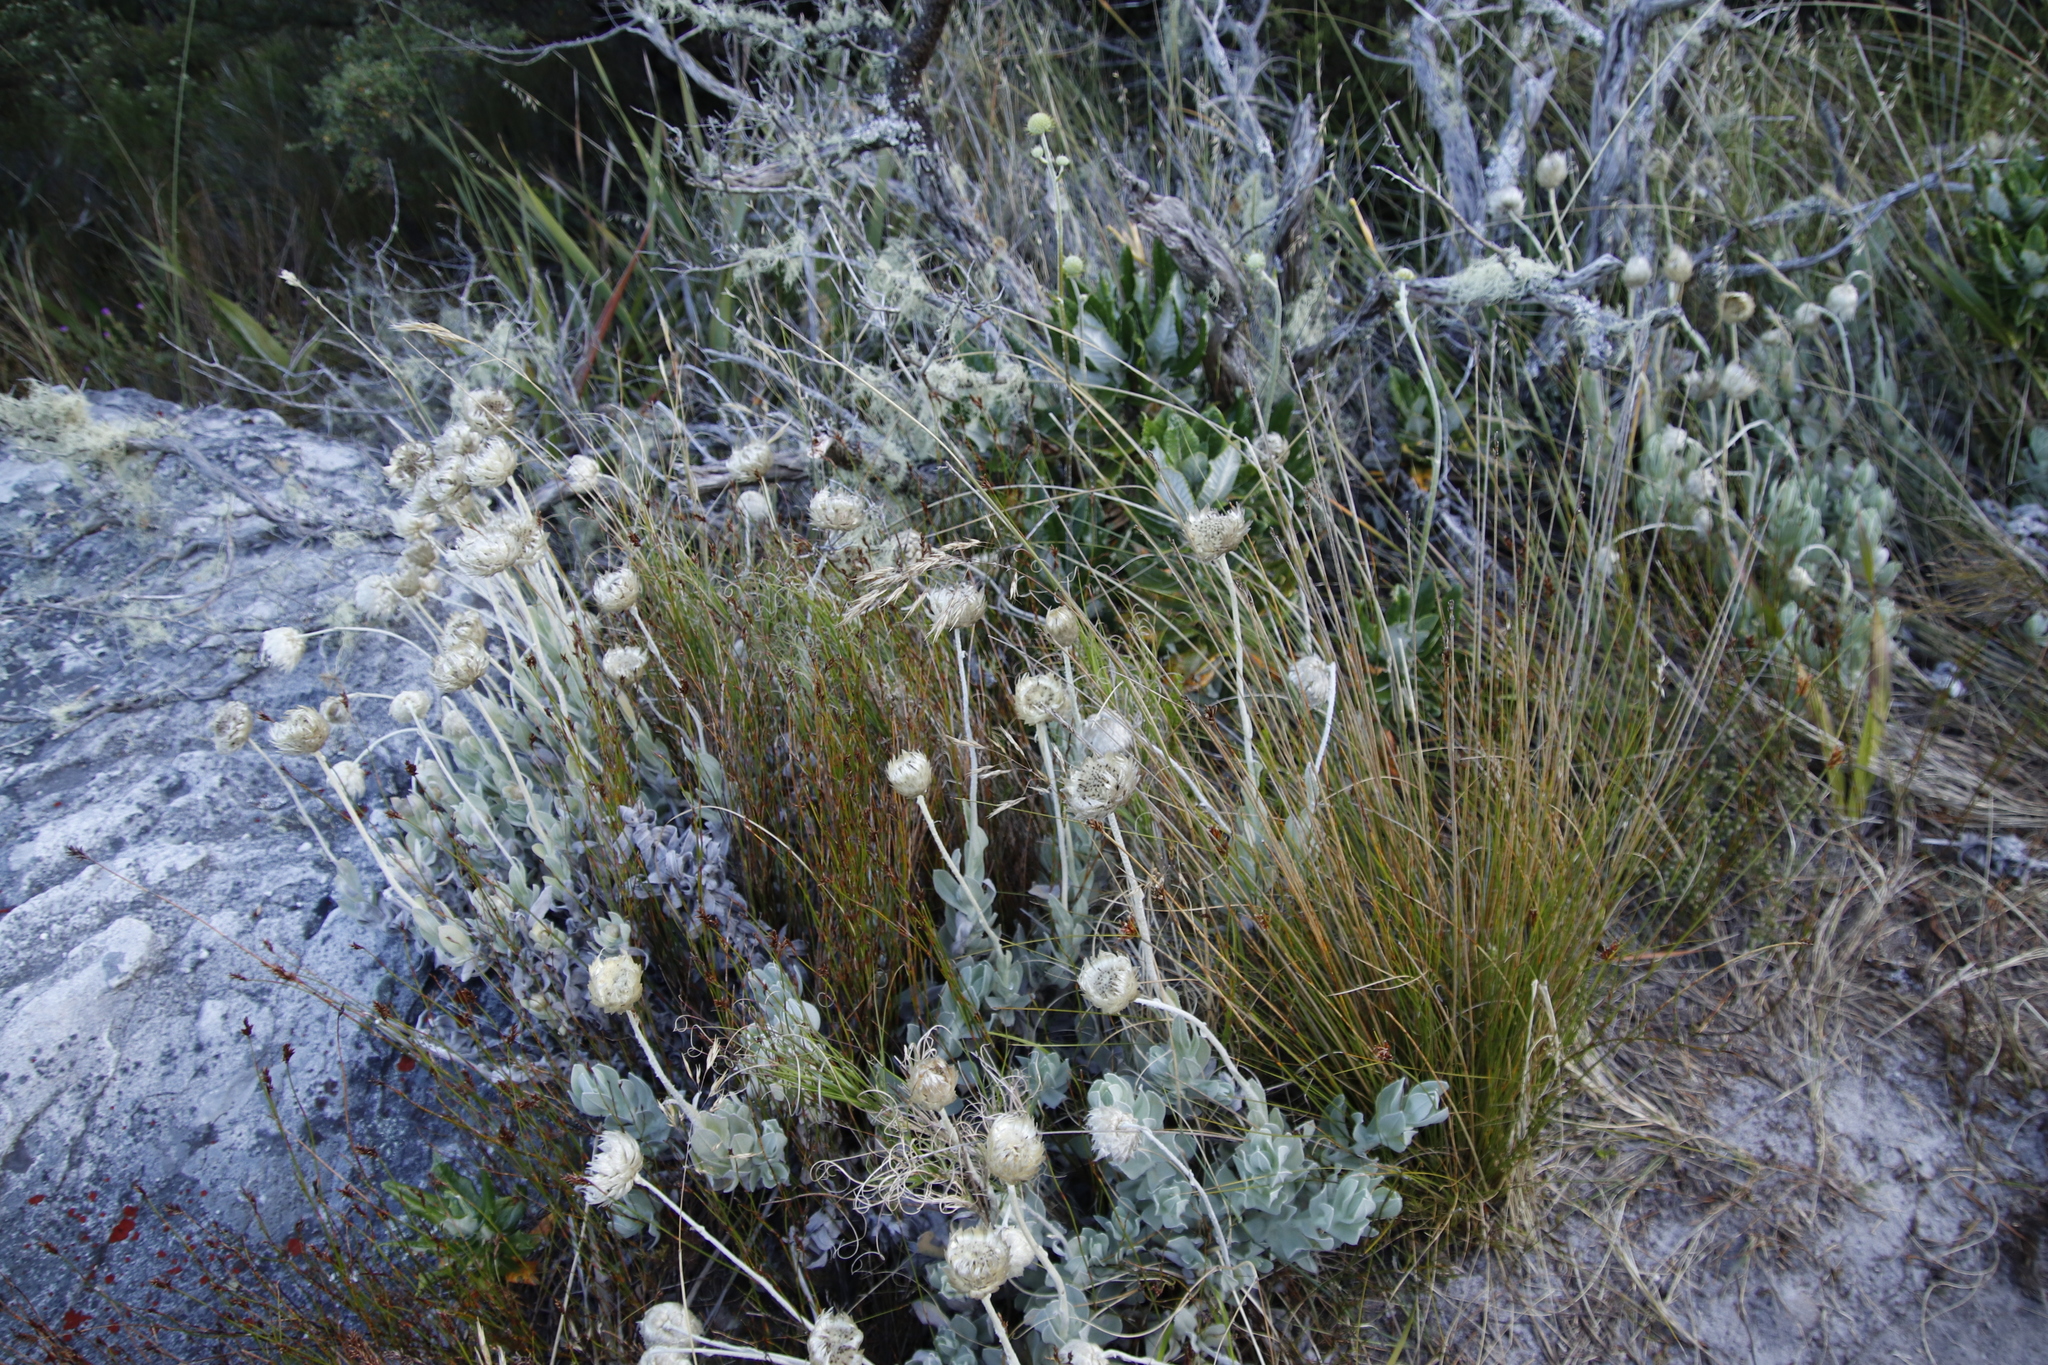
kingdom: Plantae
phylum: Tracheophyta
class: Magnoliopsida
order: Asterales
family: Asteraceae
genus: Syncarpha
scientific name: Syncarpha speciosissima
